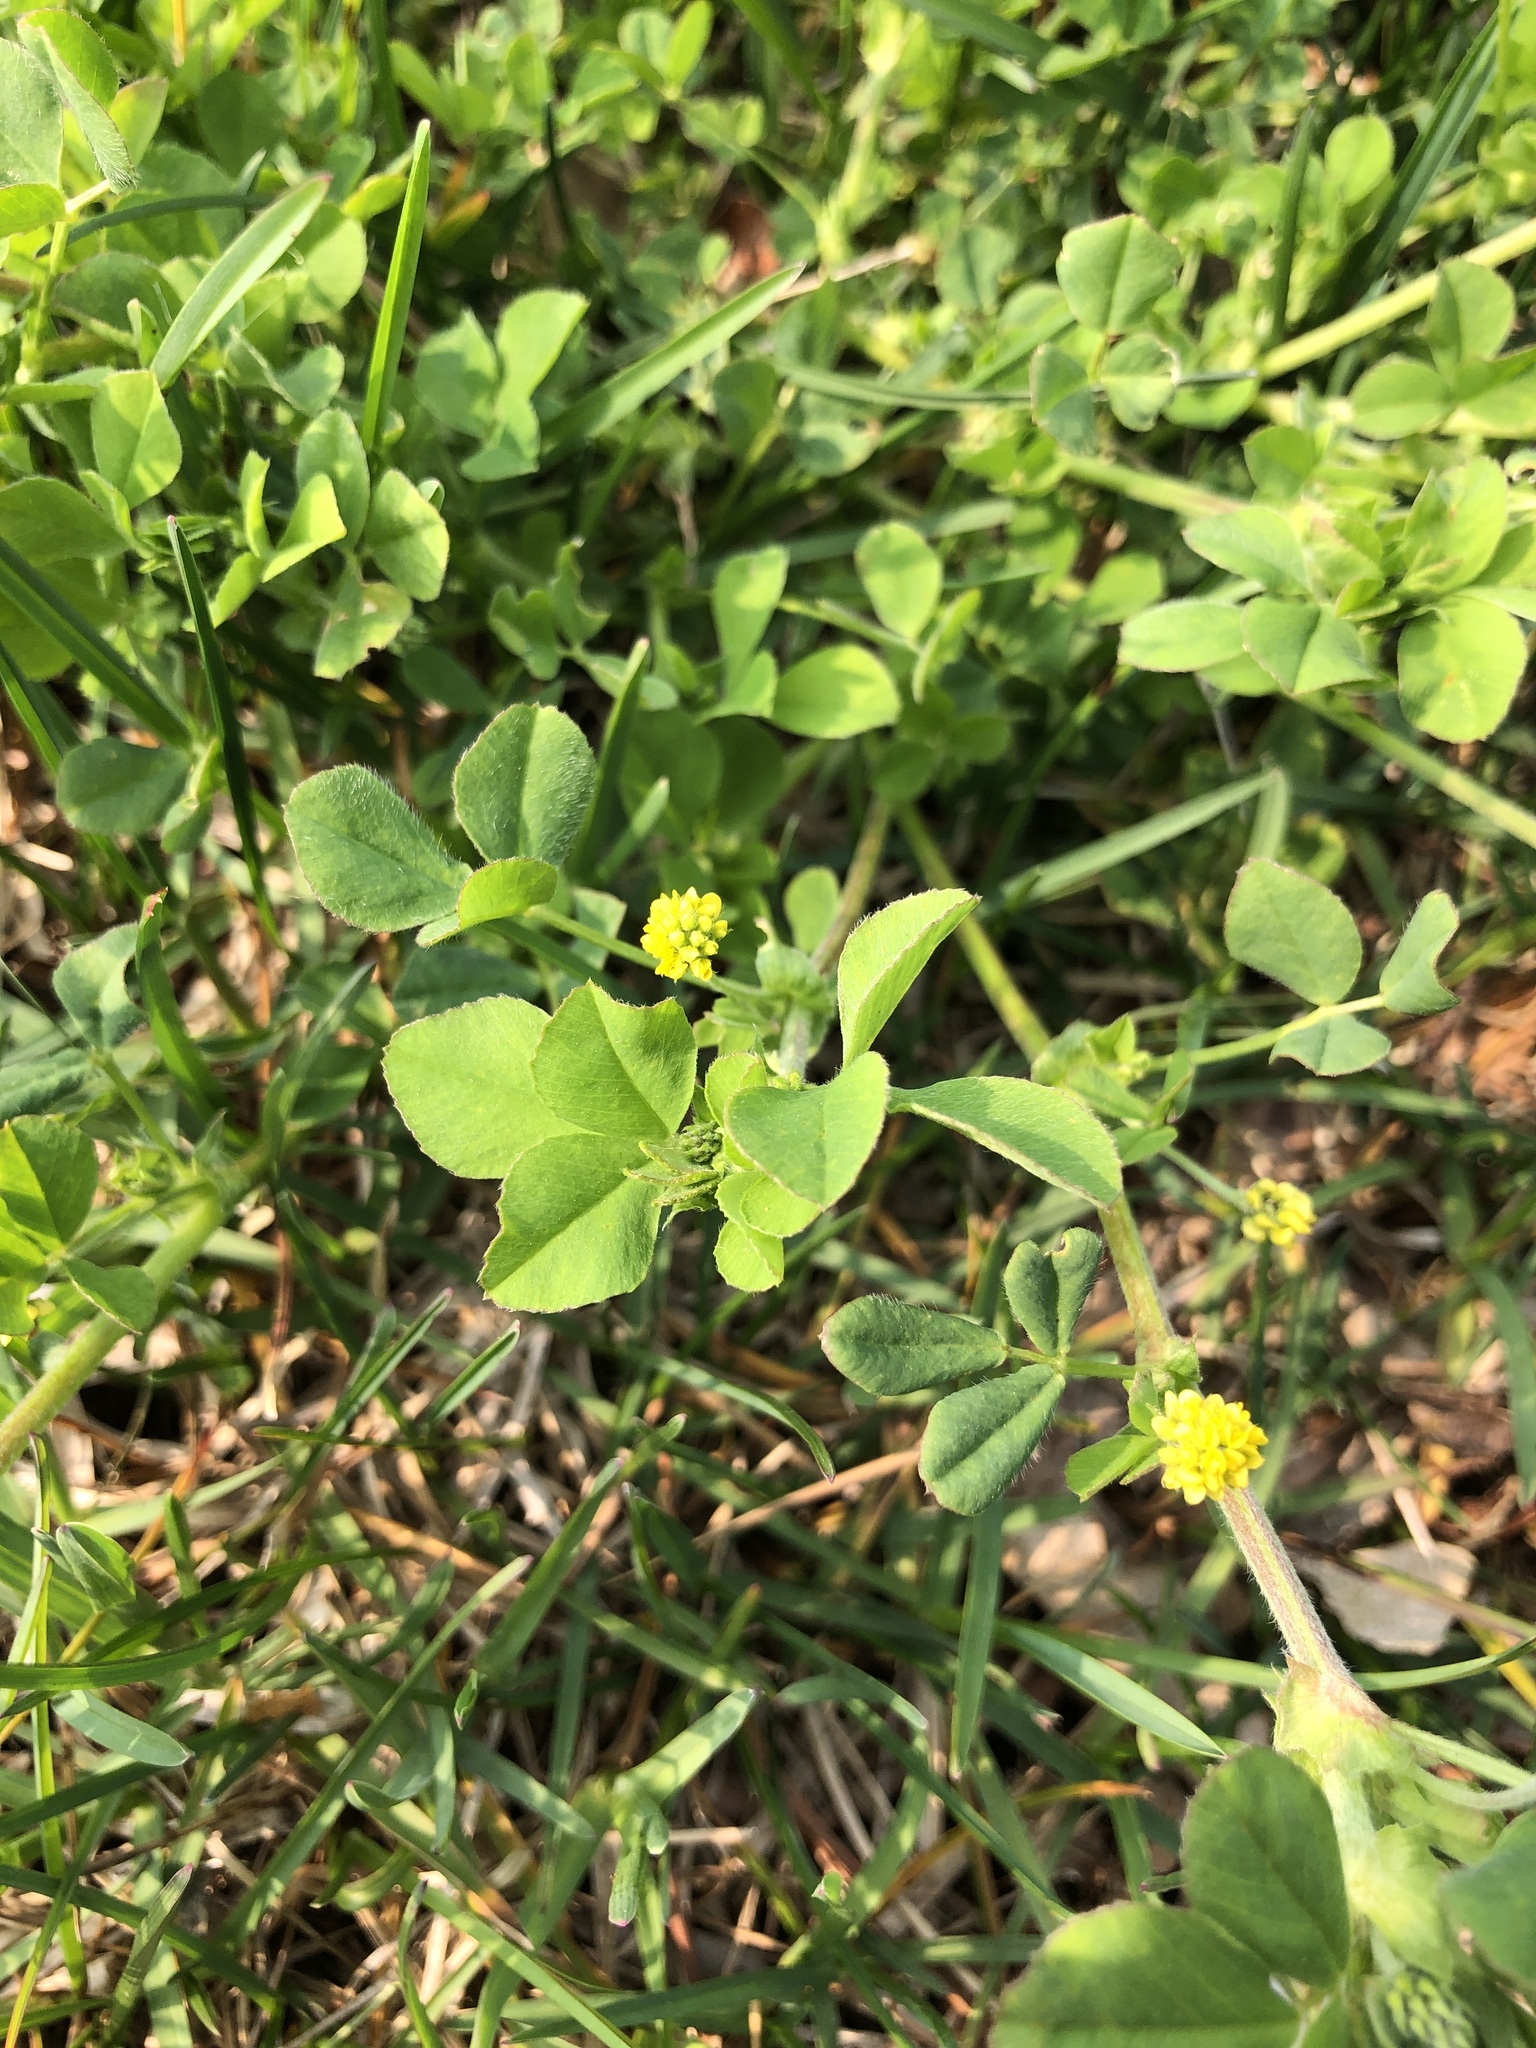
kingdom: Plantae
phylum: Tracheophyta
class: Magnoliopsida
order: Fabales
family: Fabaceae
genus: Medicago
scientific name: Medicago lupulina
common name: Black medick
